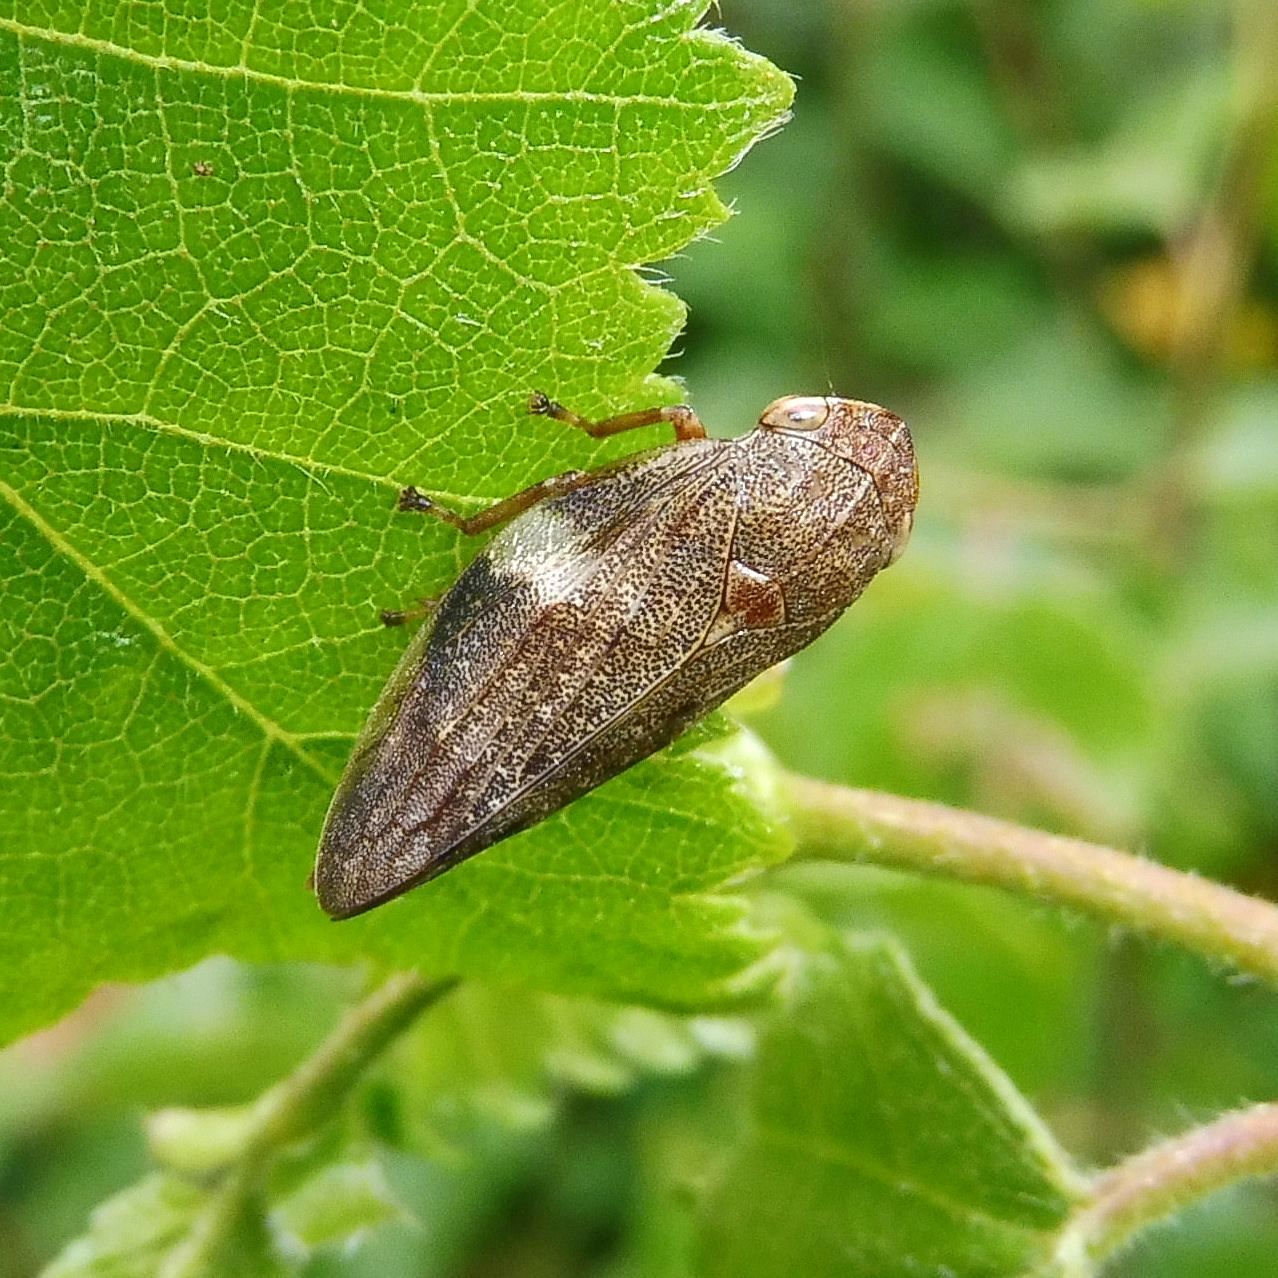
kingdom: Animalia
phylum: Arthropoda
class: Insecta
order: Hemiptera
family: Aphrophoridae
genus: Aphrophora
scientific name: Aphrophora alni
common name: European alder spittlebug
